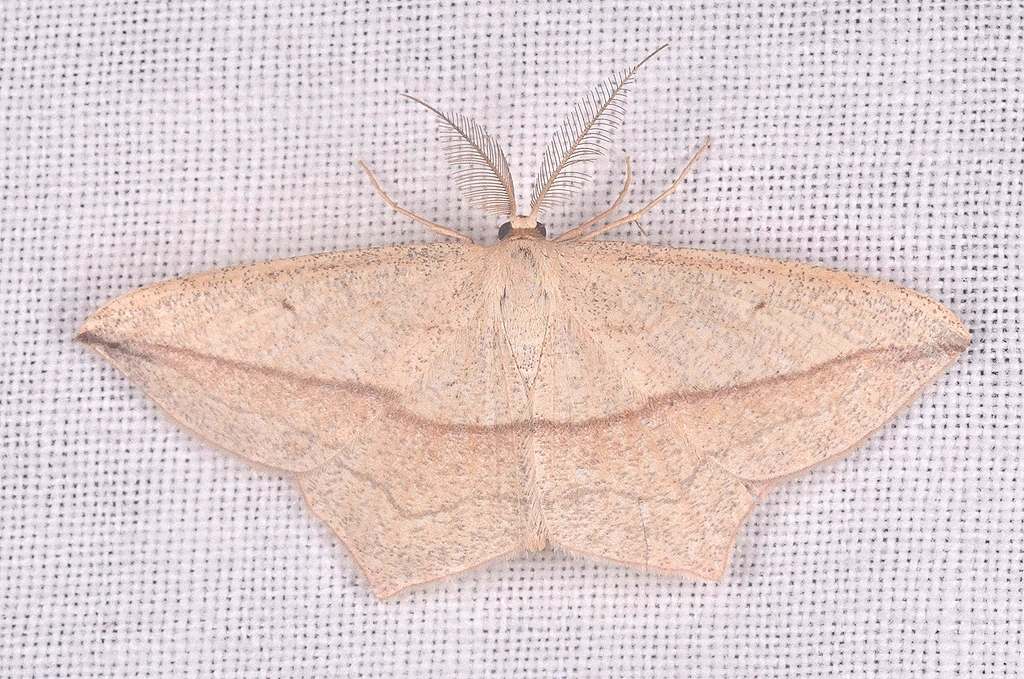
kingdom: Animalia
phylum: Arthropoda
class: Insecta
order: Lepidoptera
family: Geometridae
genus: Timandra
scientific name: Timandra comae
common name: Blood-vein
